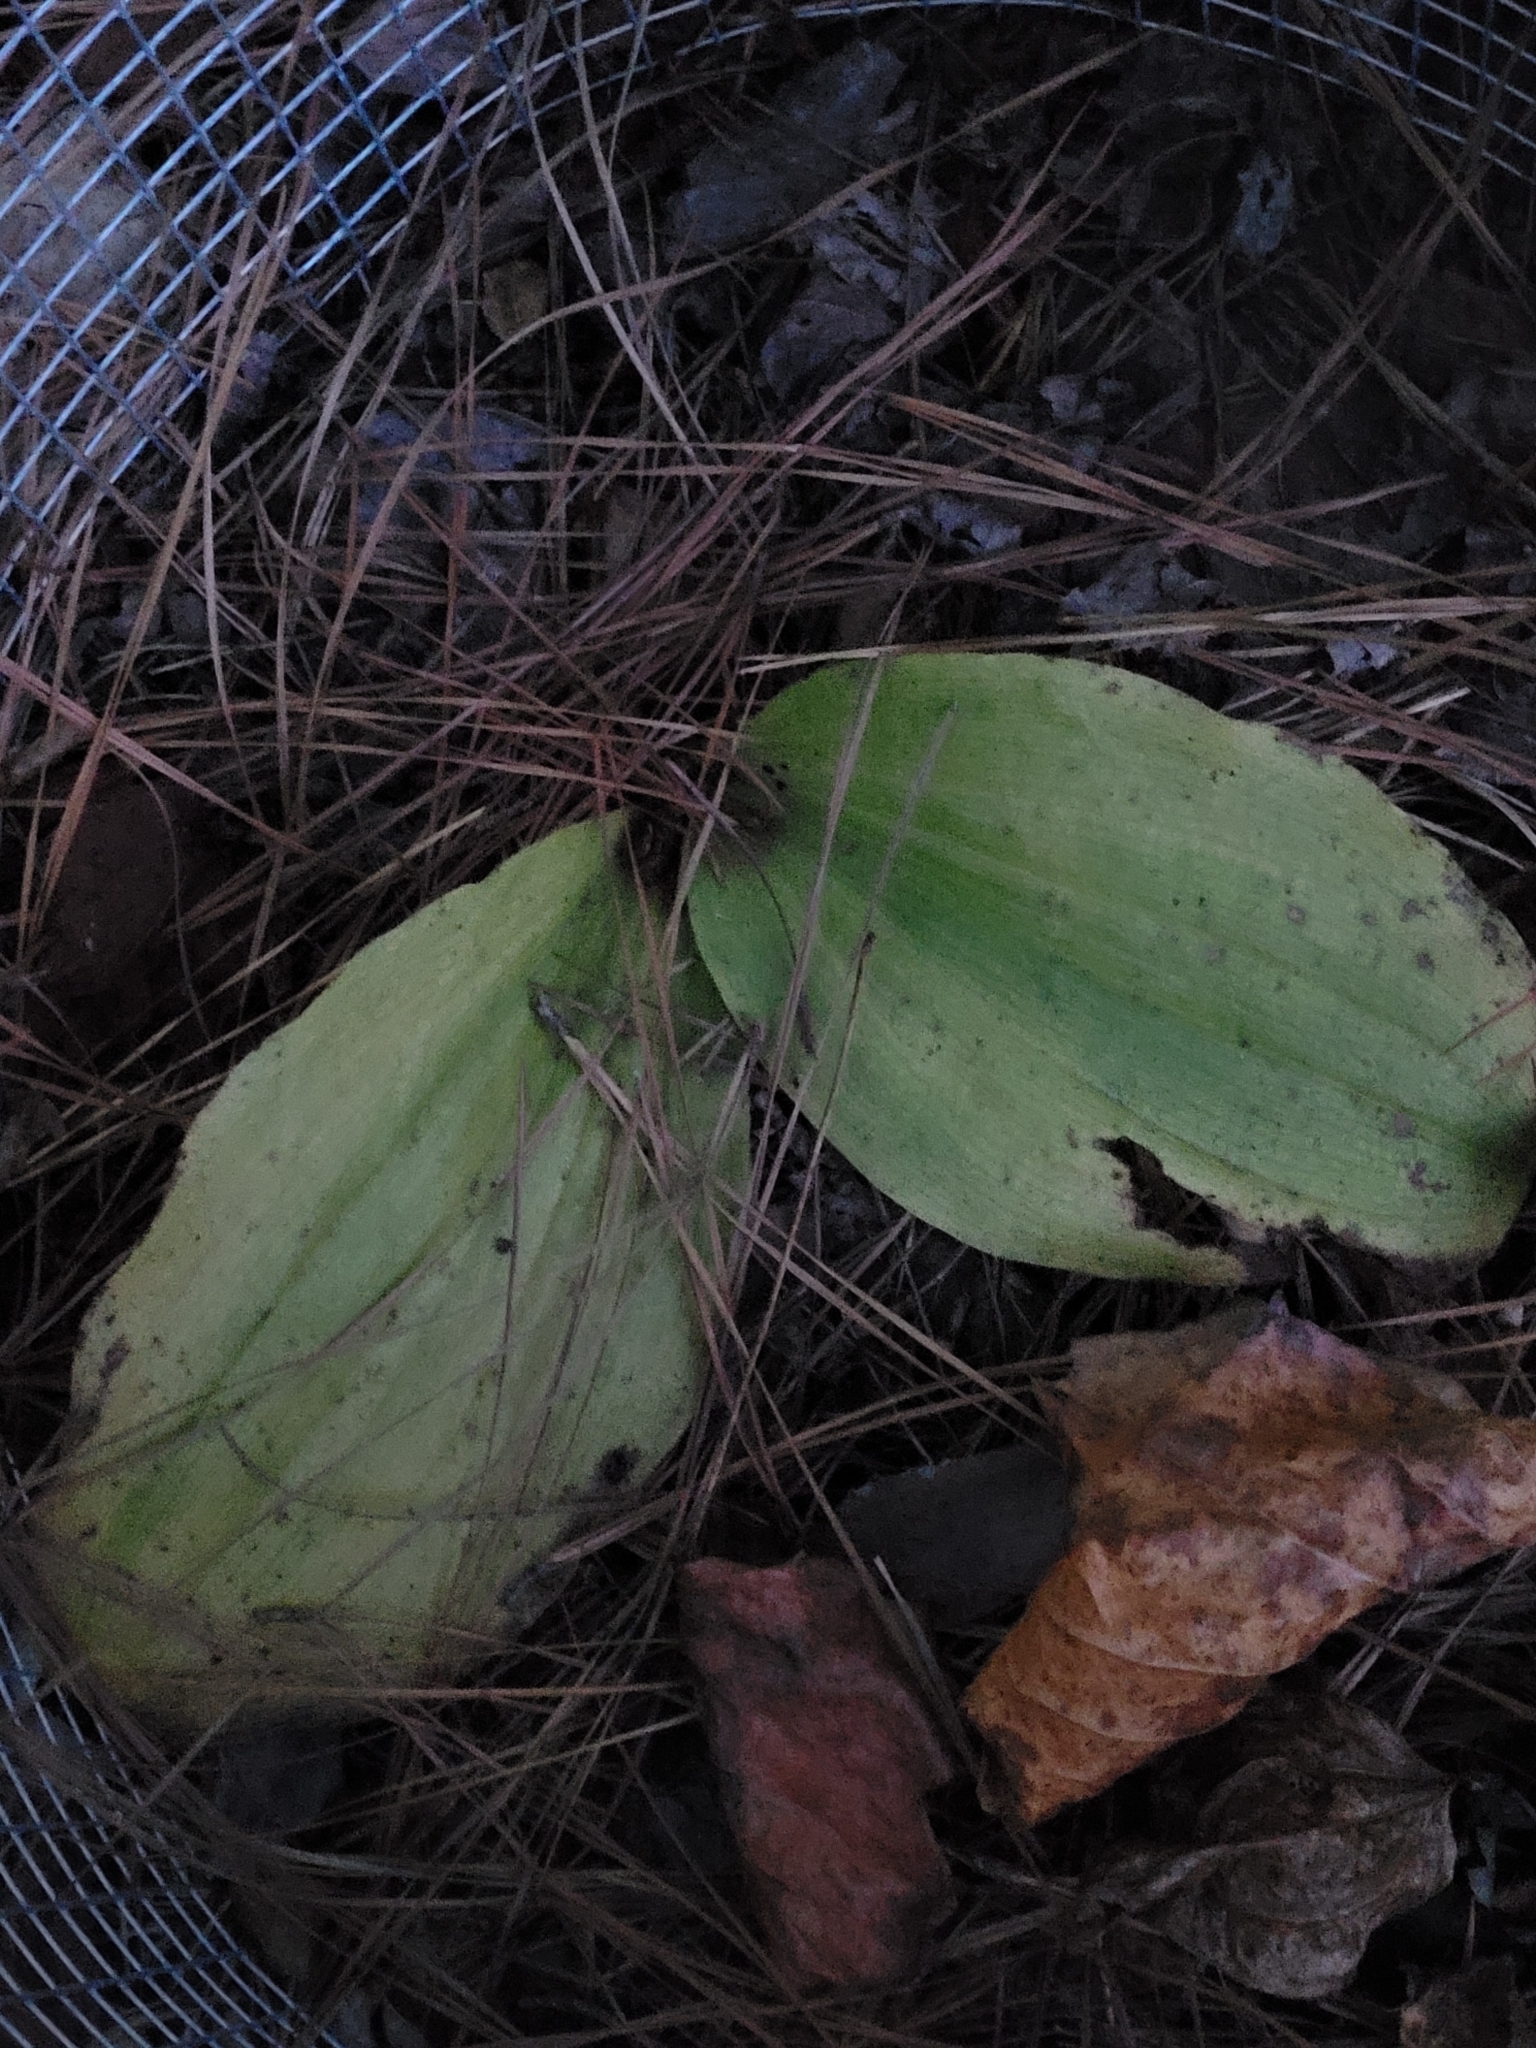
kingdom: Plantae
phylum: Tracheophyta
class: Liliopsida
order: Asparagales
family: Orchidaceae
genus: Cypripedium
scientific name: Cypripedium acaule
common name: Pink lady's-slipper
